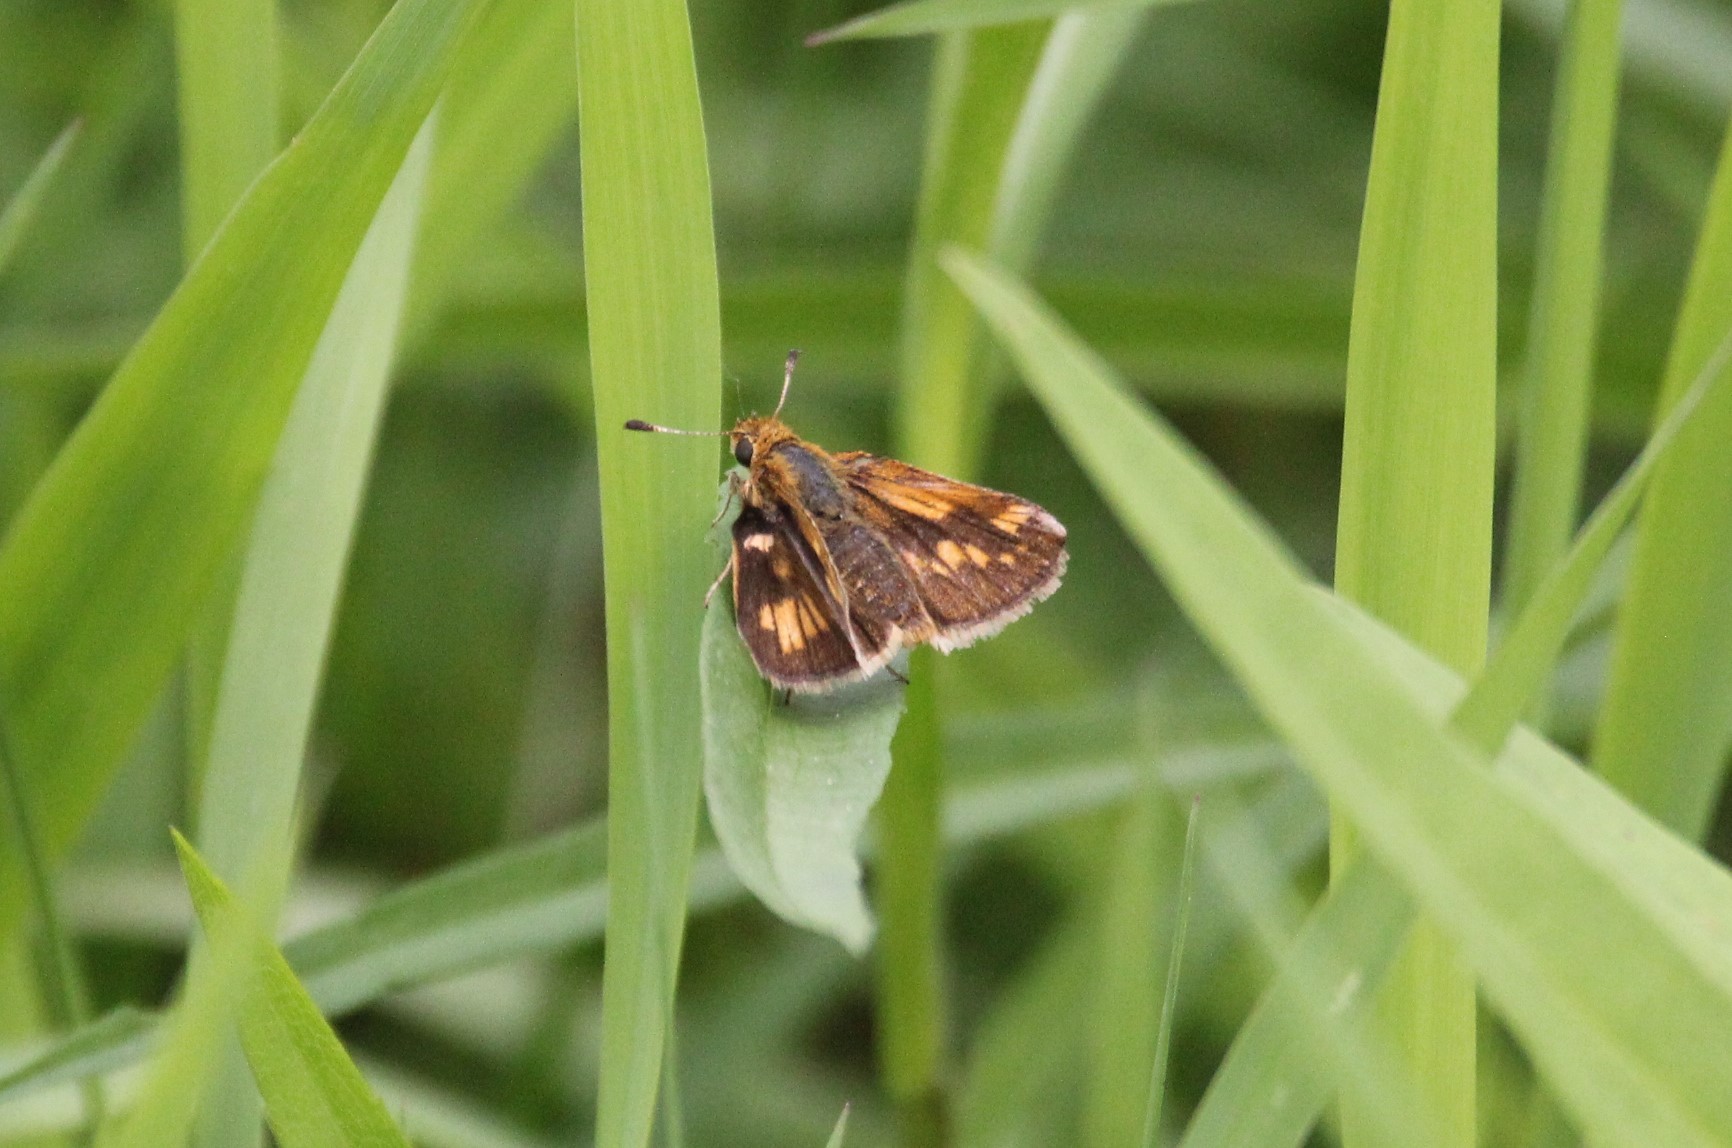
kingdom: Animalia
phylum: Arthropoda
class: Insecta
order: Lepidoptera
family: Hesperiidae
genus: Polites
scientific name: Polites coras
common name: Peck's skipper
